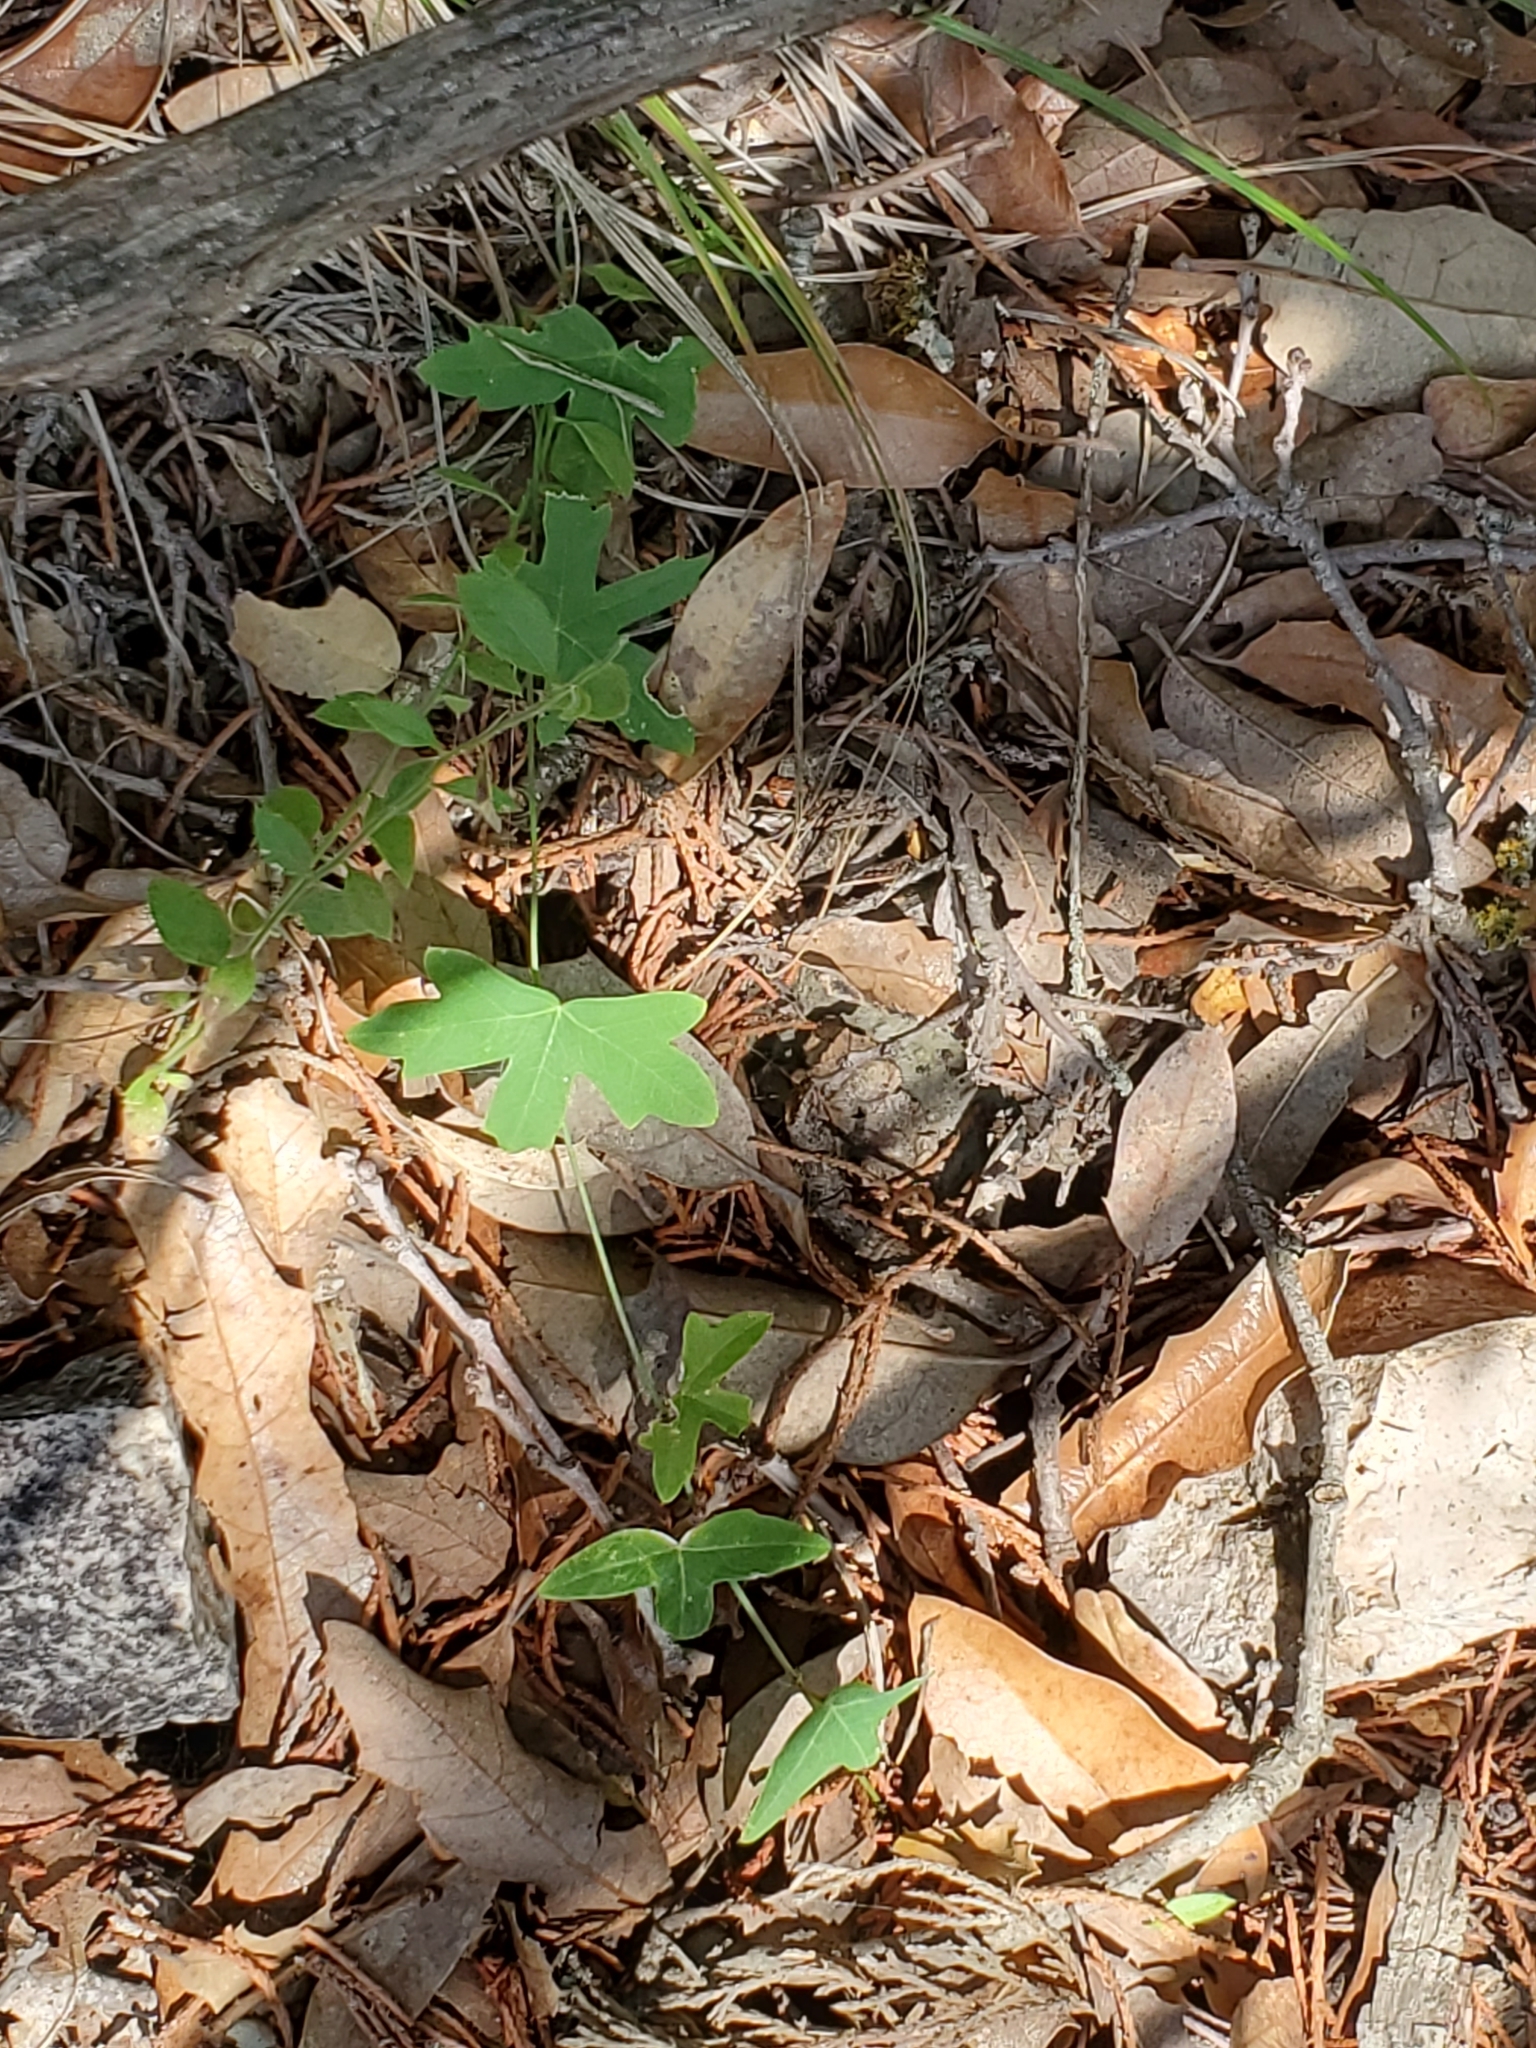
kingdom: Plantae
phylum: Tracheophyta
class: Magnoliopsida
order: Malpighiales
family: Passifloraceae
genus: Passiflora
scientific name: Passiflora tenuiloba
